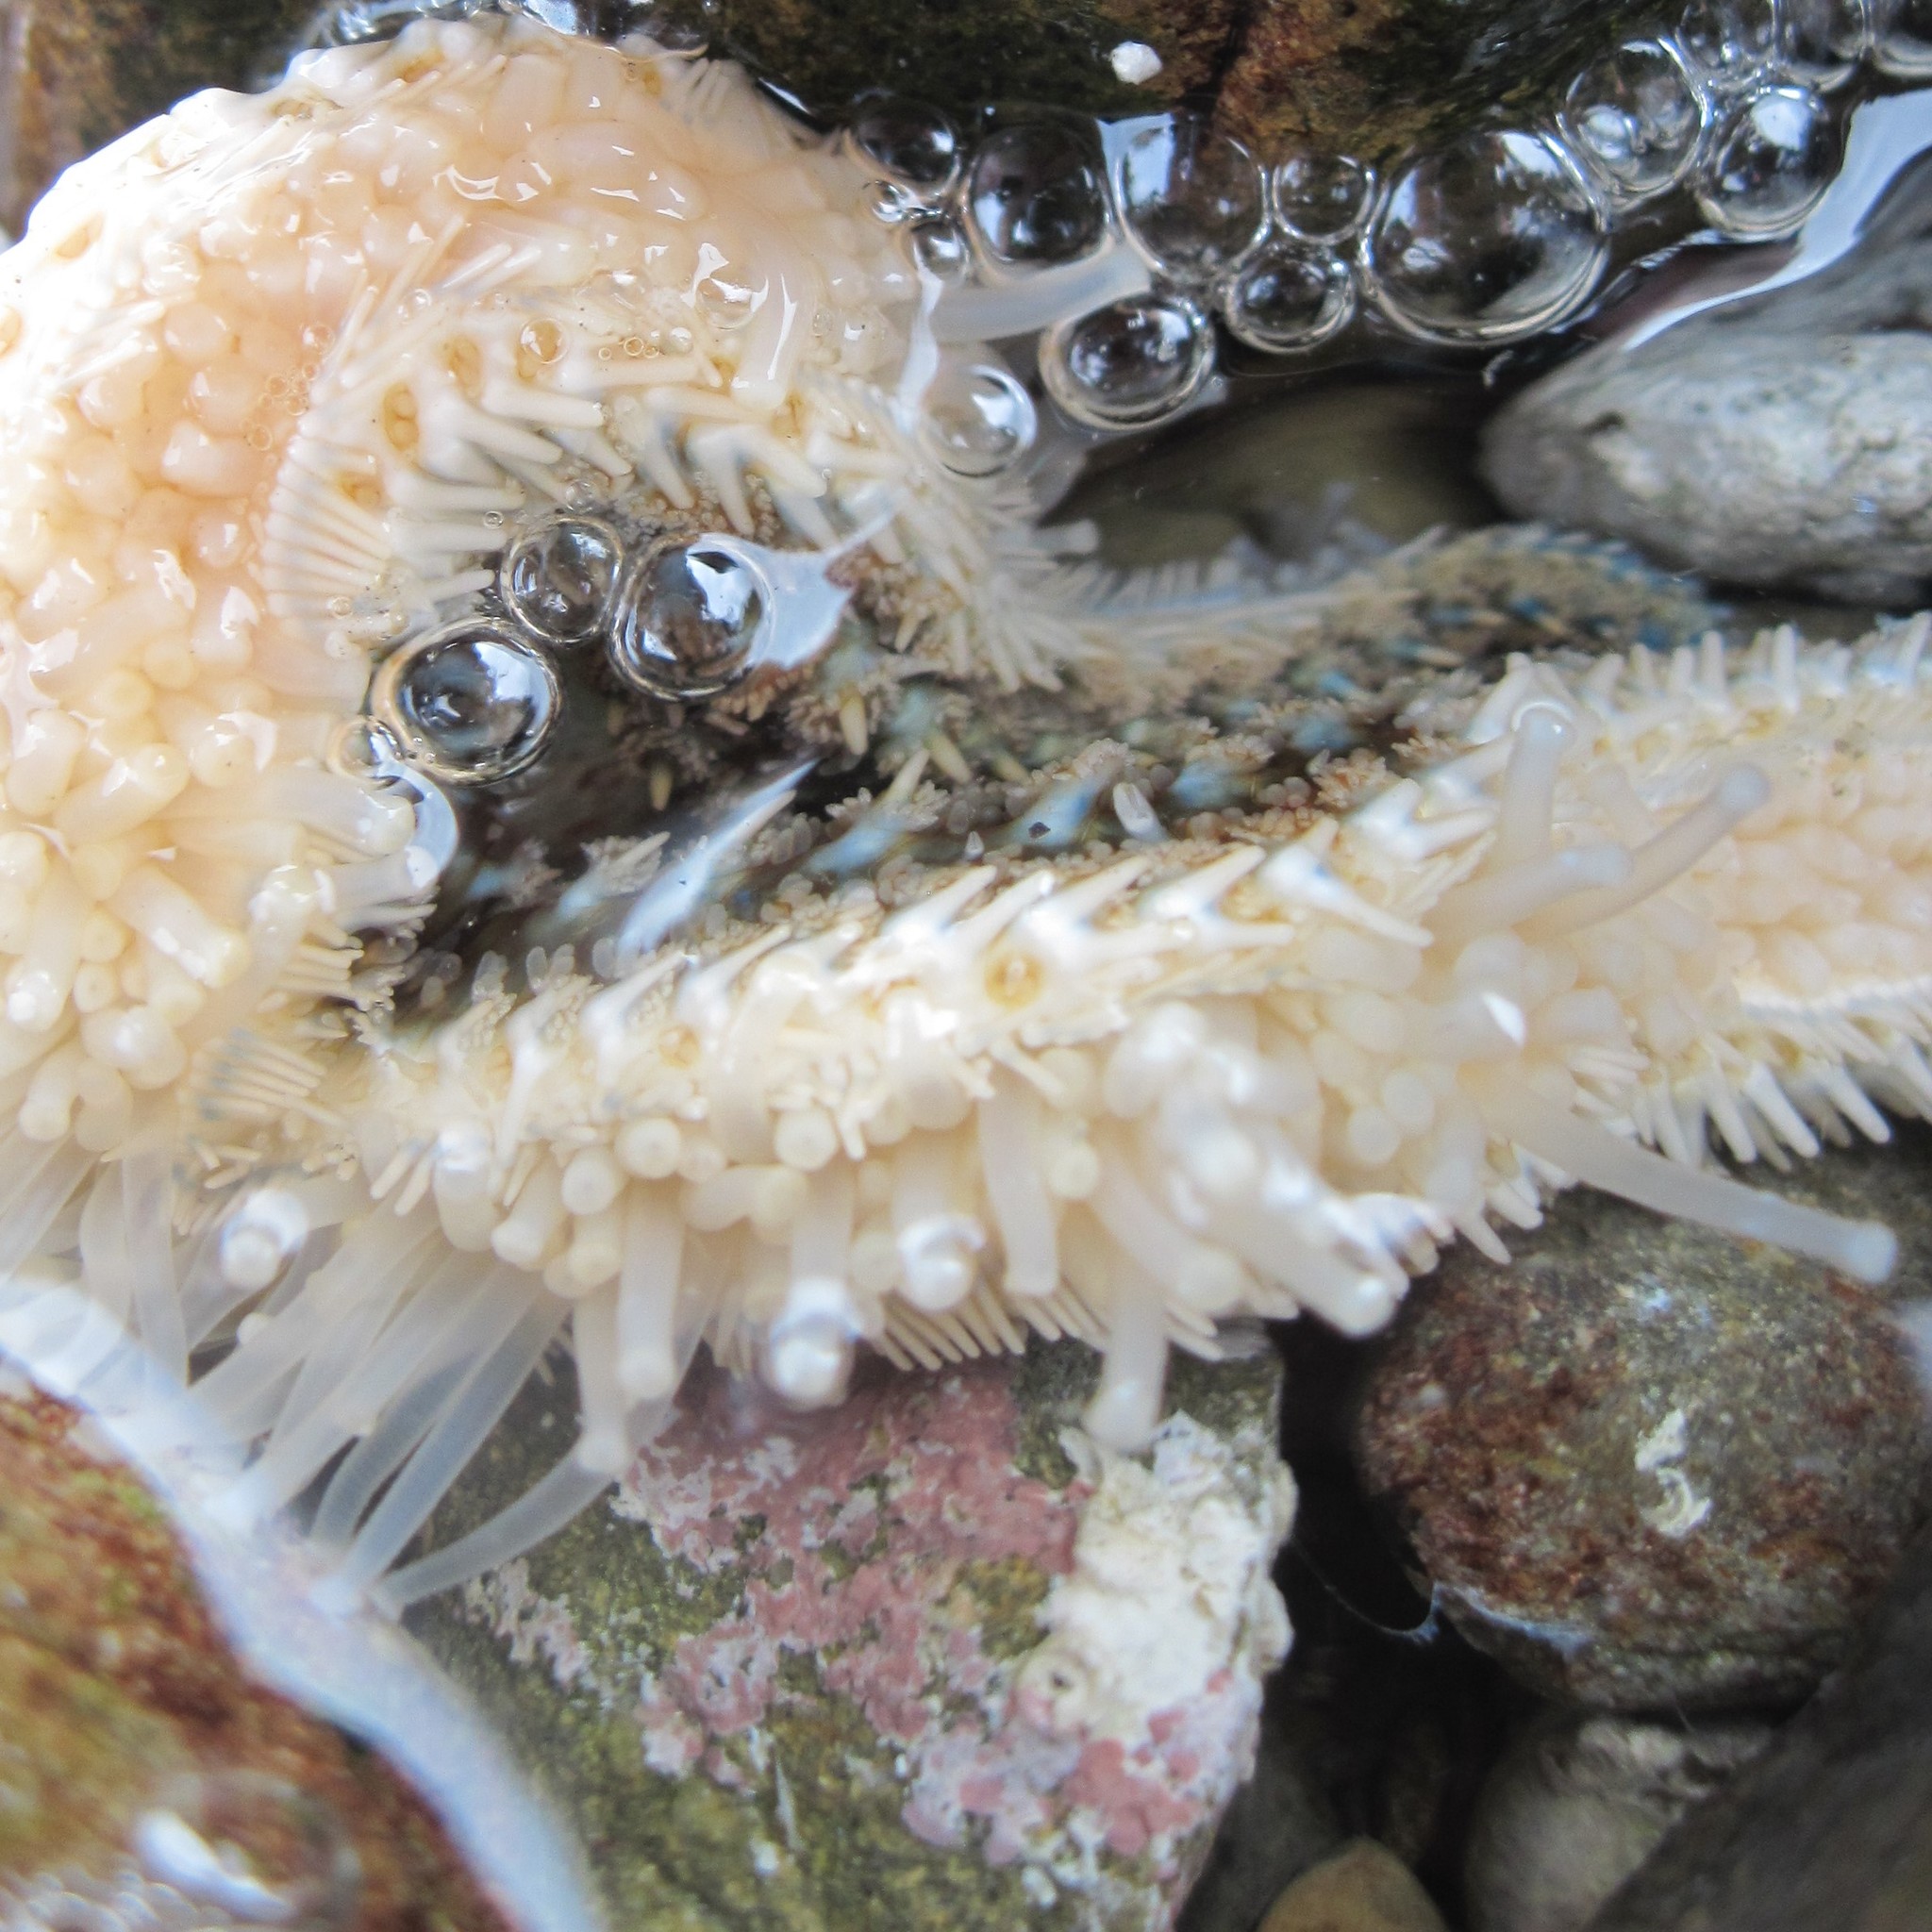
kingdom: Animalia
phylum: Echinodermata
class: Asteroidea
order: Forcipulatida
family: Asteriidae
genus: Coscinasterias
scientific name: Coscinasterias muricata
